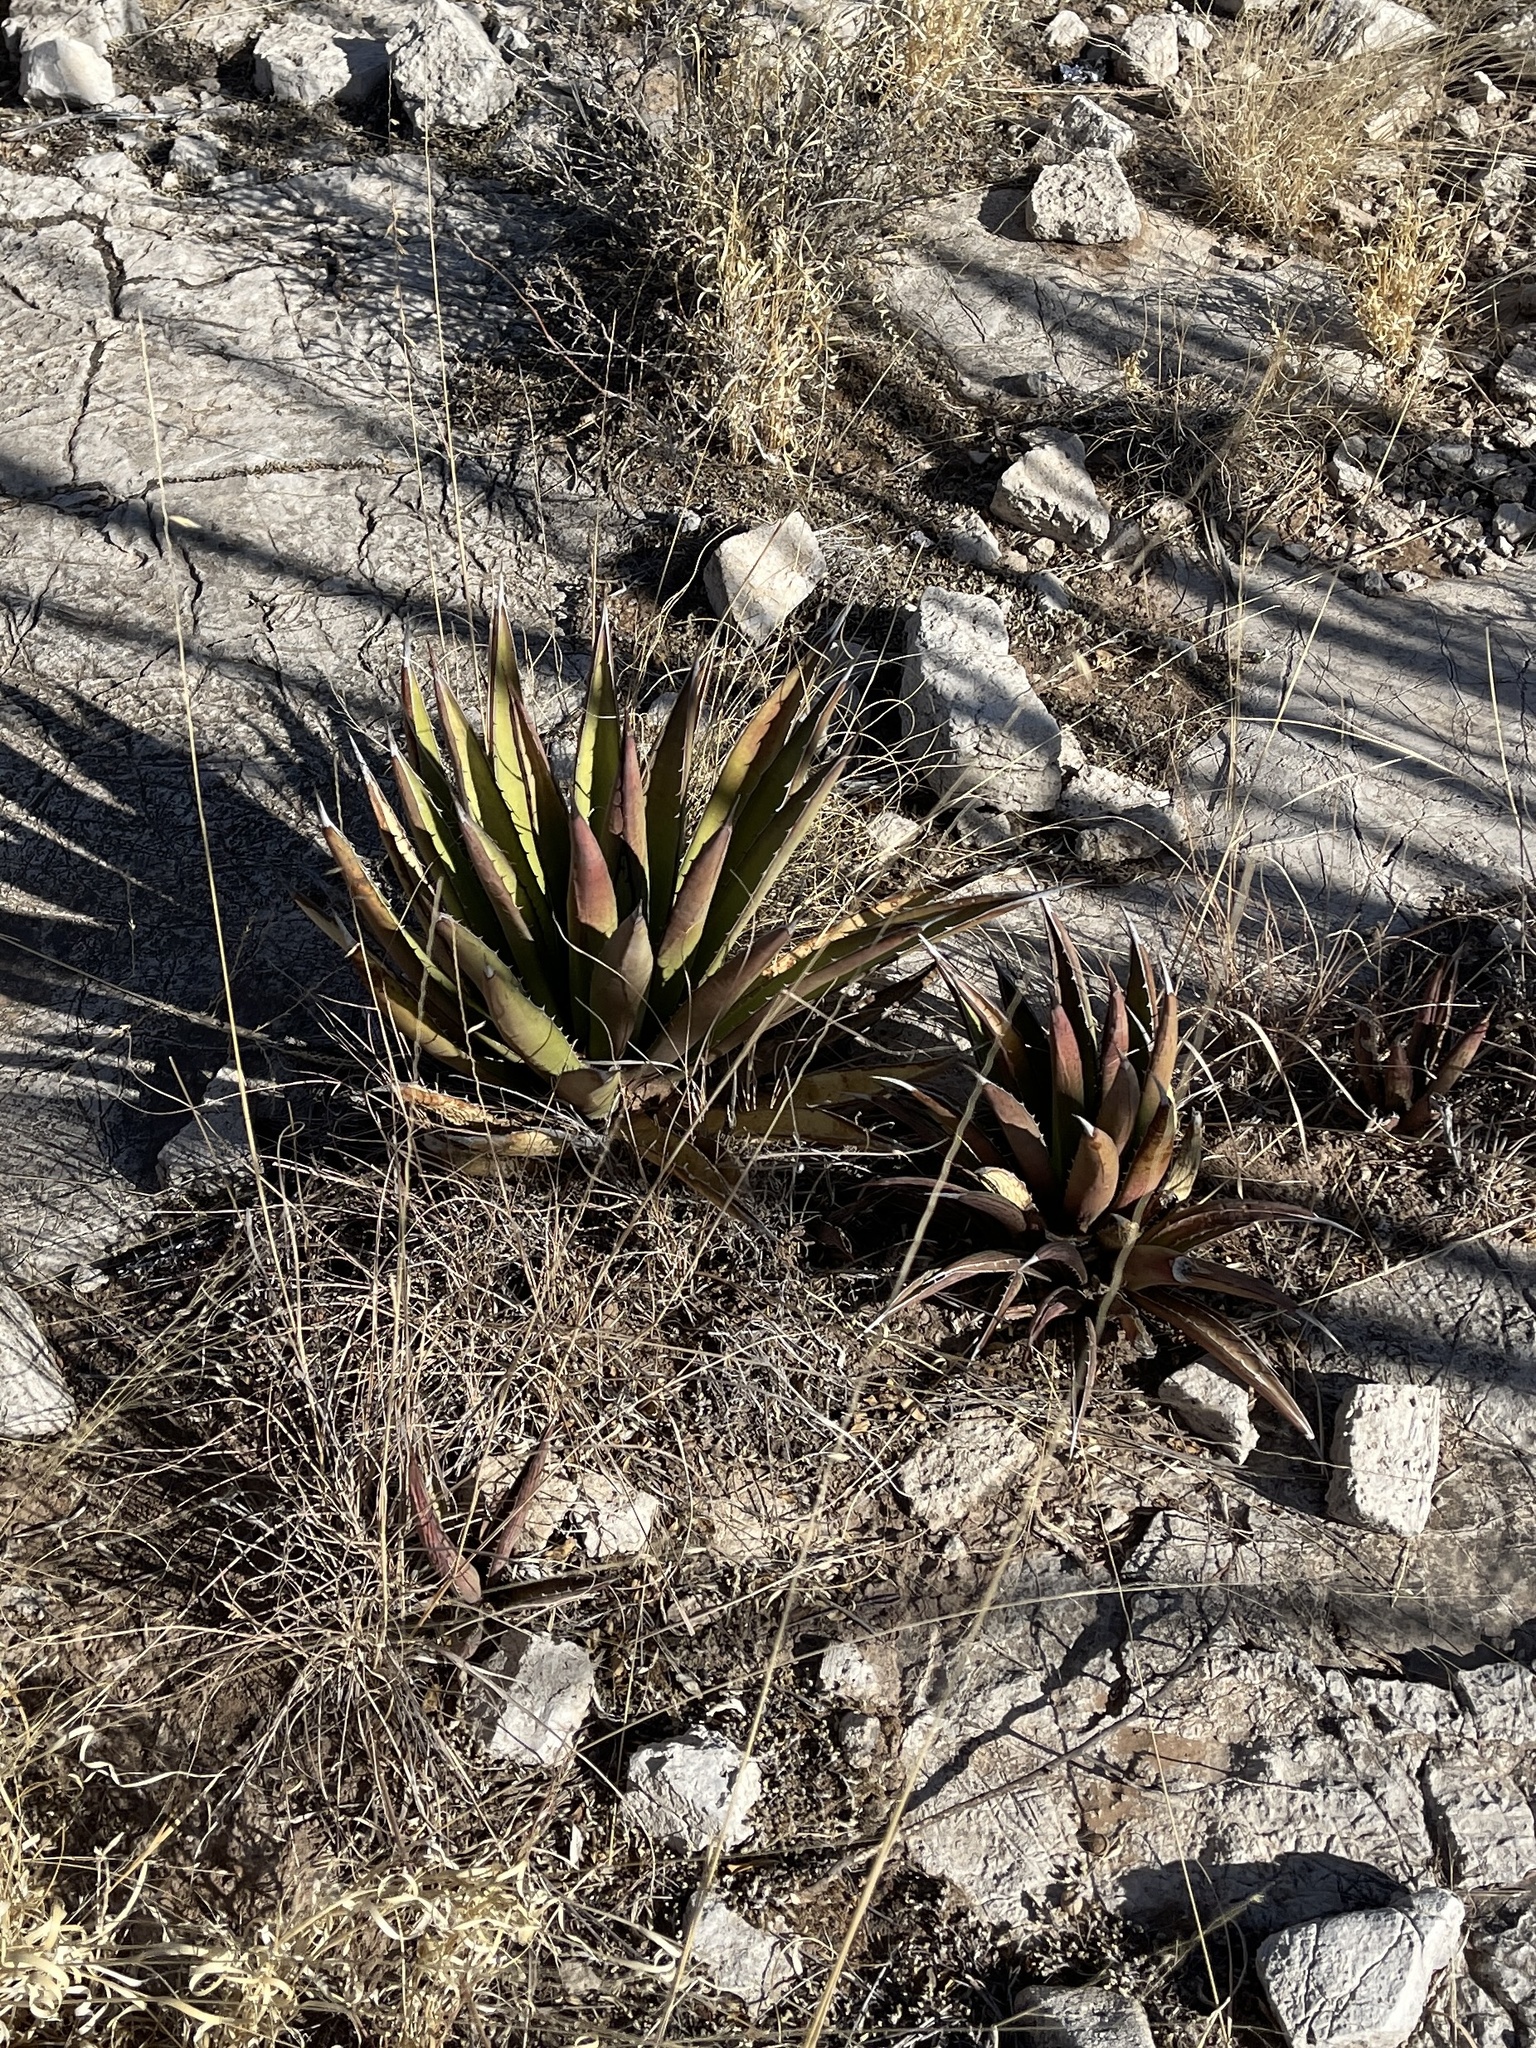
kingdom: Plantae
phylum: Tracheophyta
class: Liliopsida
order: Asparagales
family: Asparagaceae
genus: Agave
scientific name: Agave lechuguilla
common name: Lecheguilla agave
